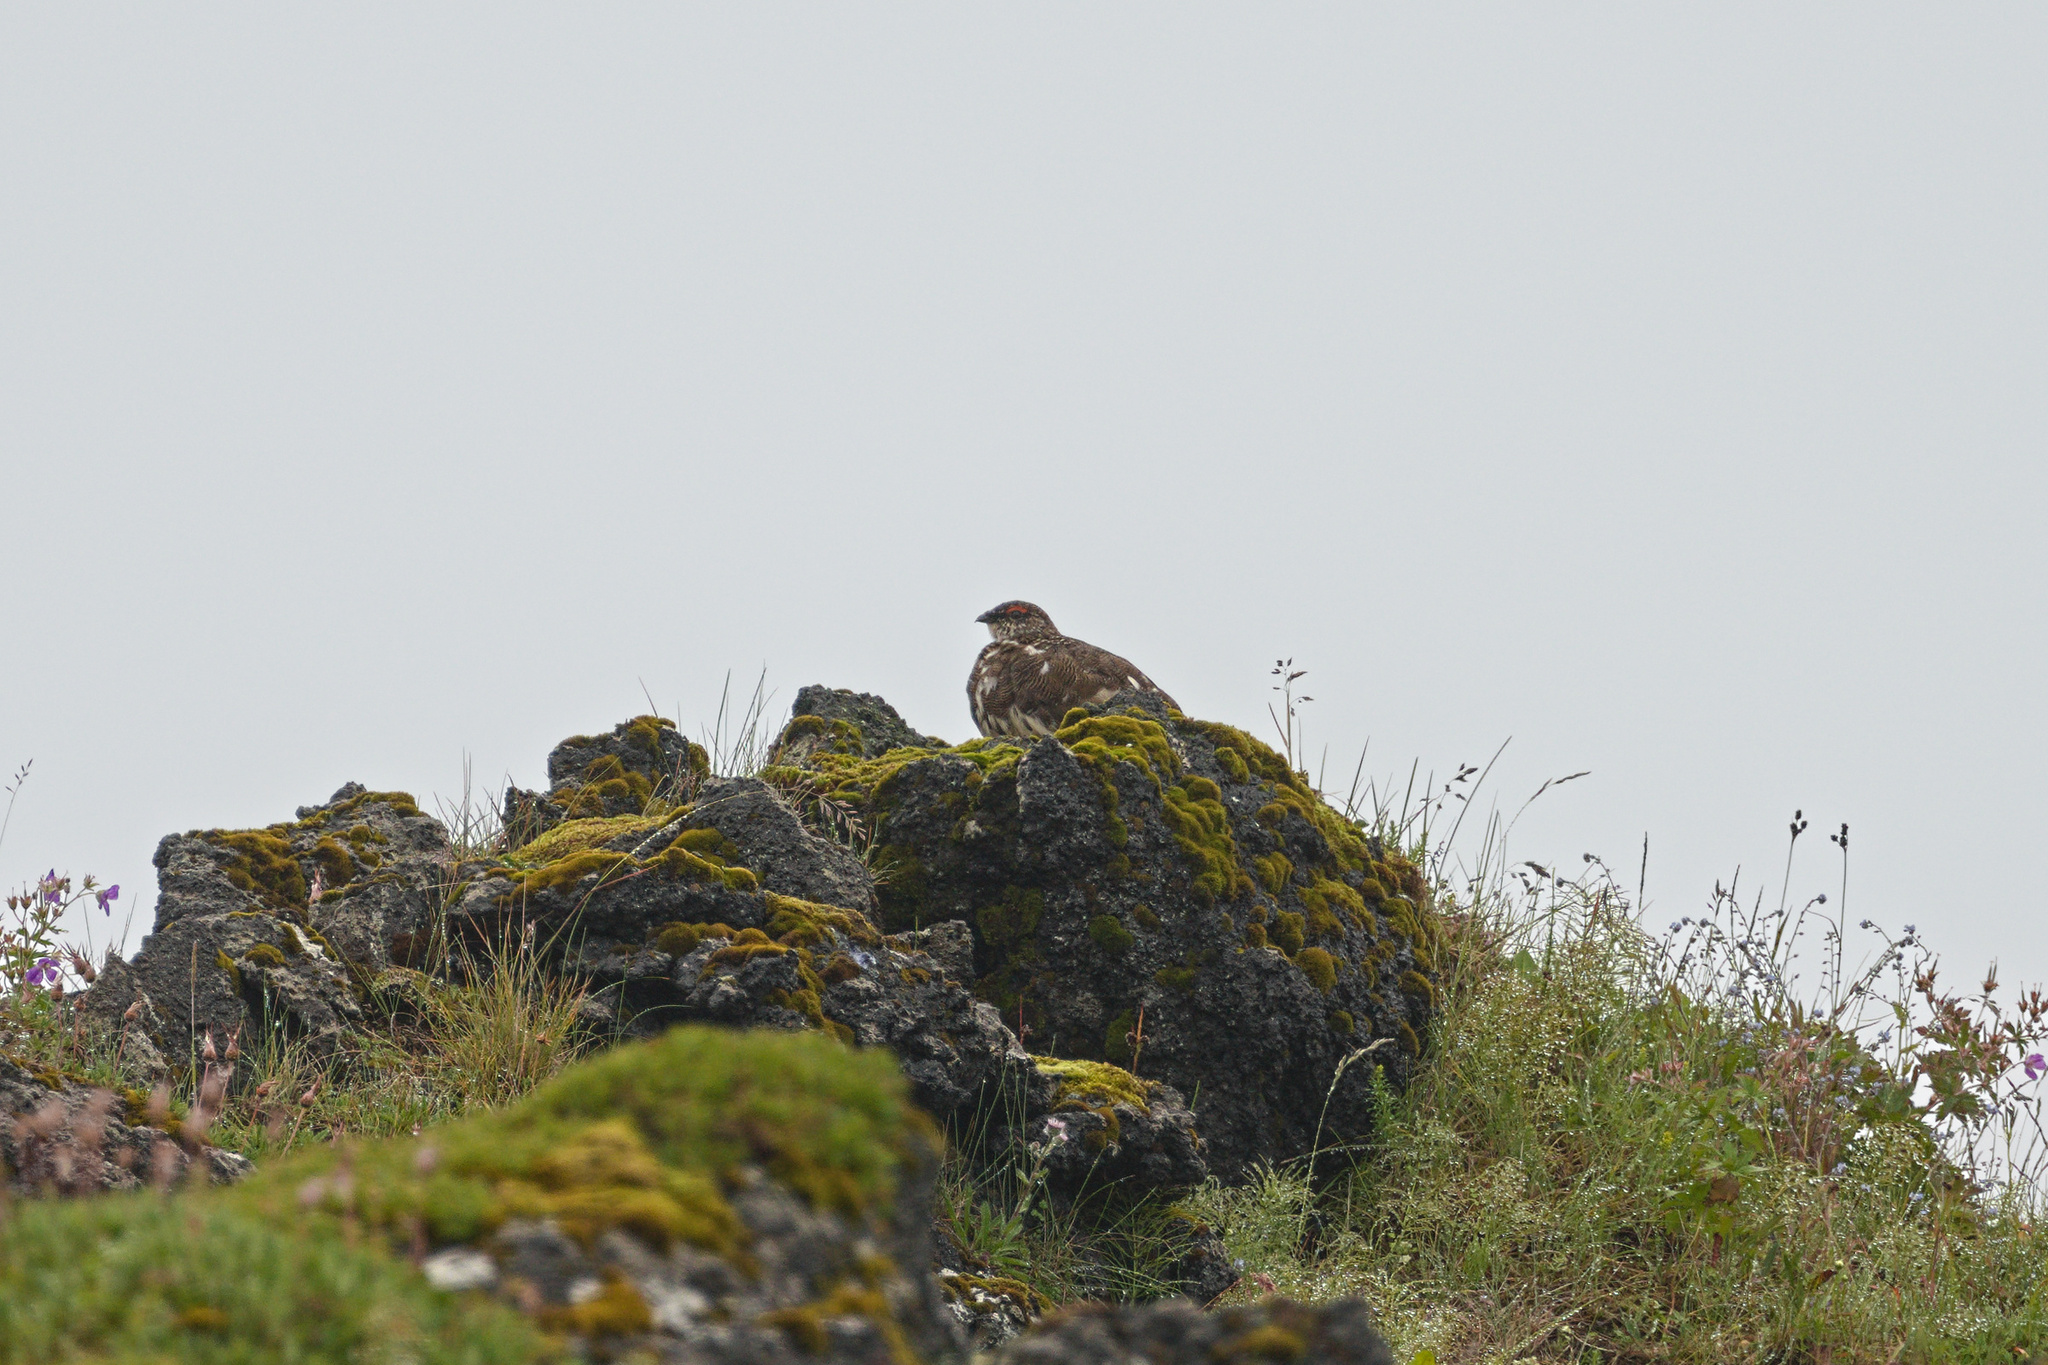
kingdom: Animalia
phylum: Chordata
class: Aves
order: Galliformes
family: Phasianidae
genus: Lagopus
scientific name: Lagopus muta
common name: Rock ptarmigan
